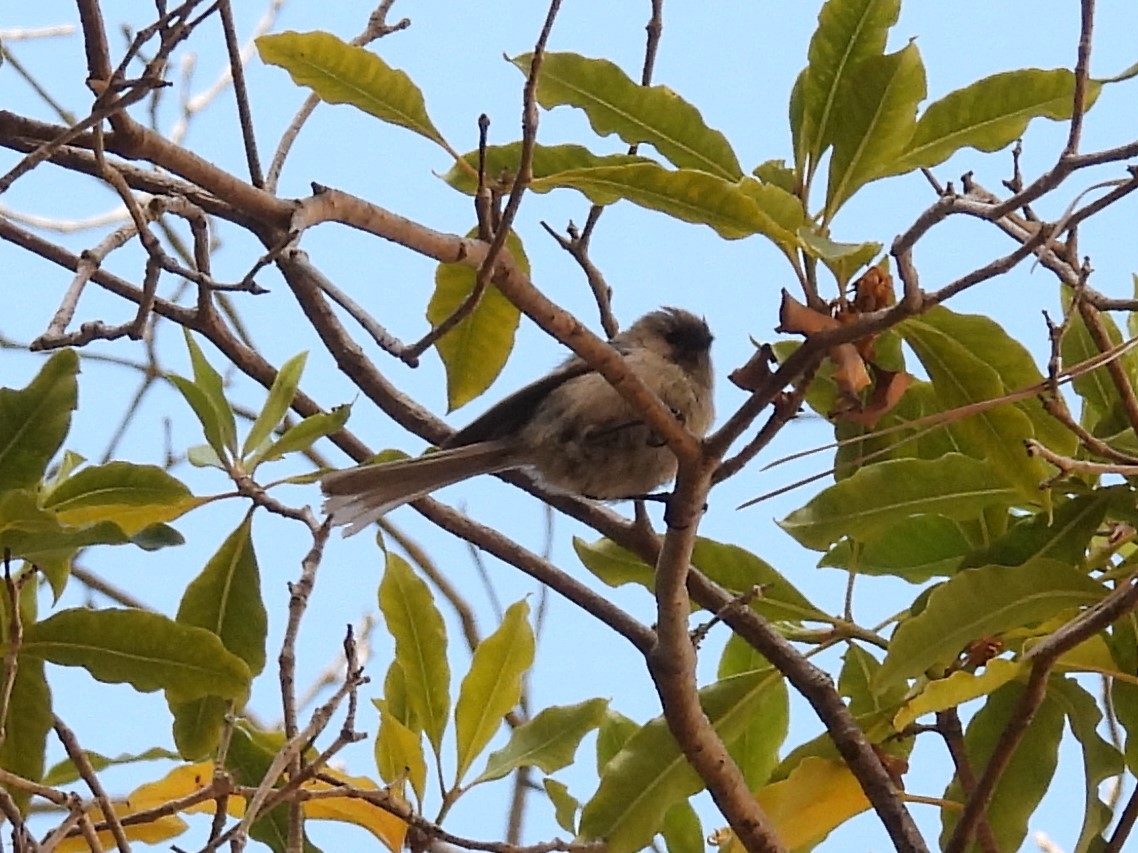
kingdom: Animalia
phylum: Chordata
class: Aves
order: Passeriformes
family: Aegithalidae
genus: Psaltriparus
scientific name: Psaltriparus minimus
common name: American bushtit
